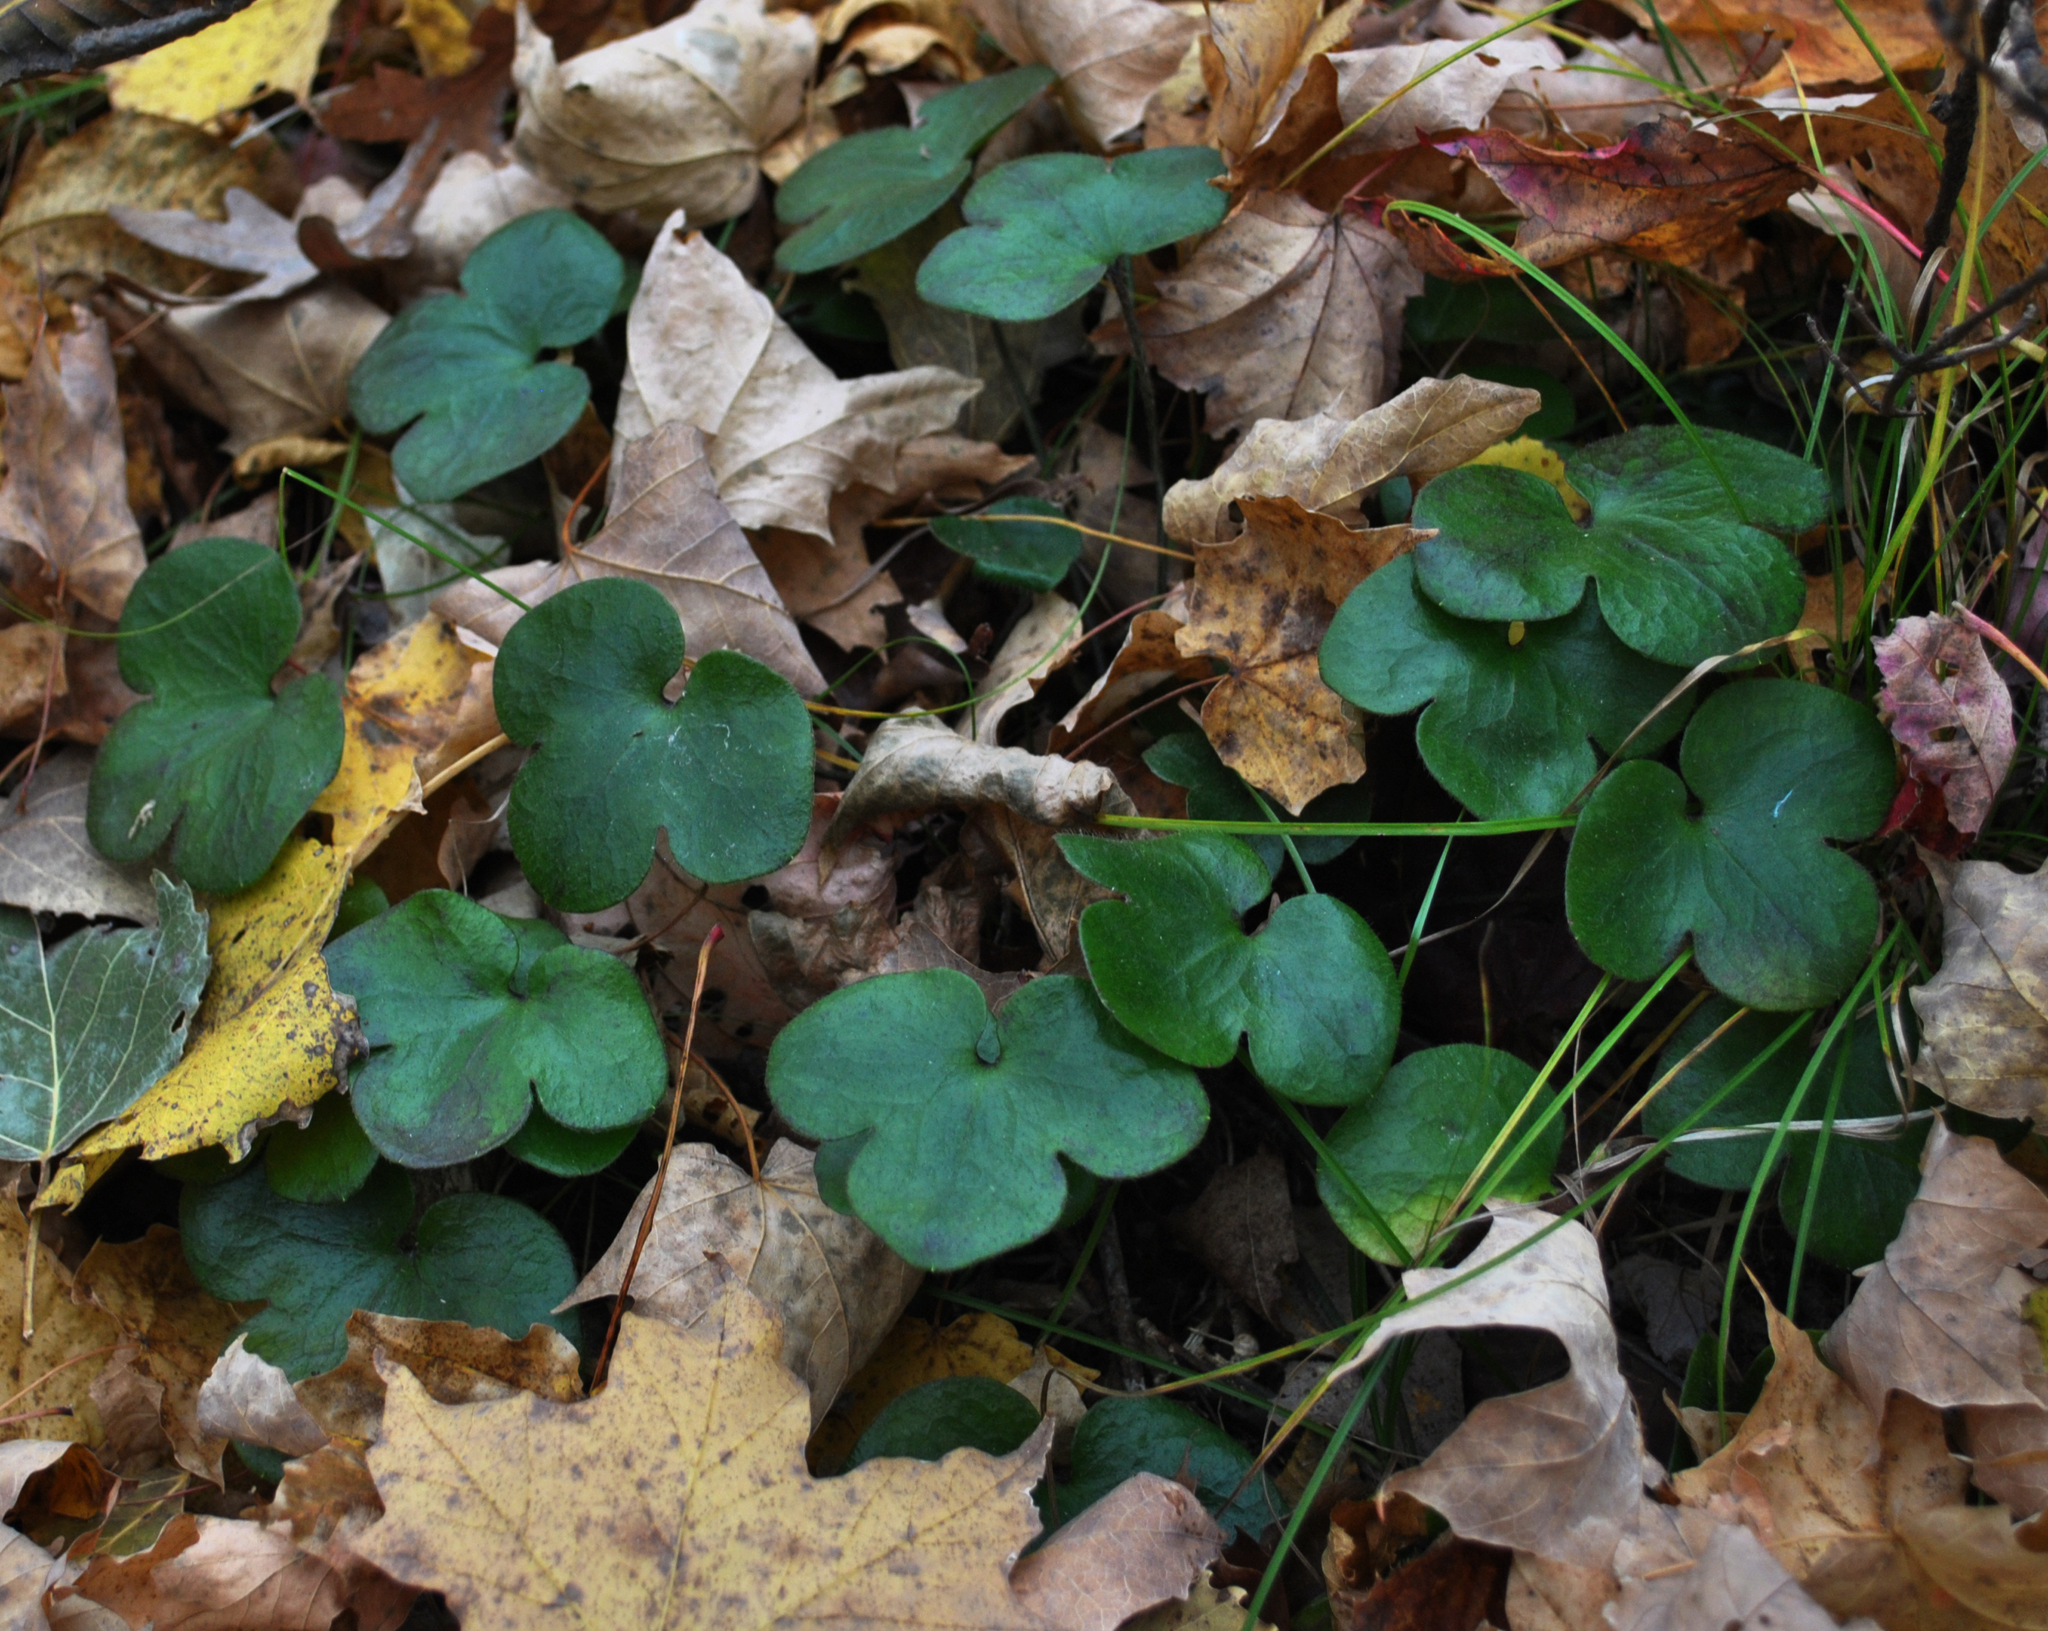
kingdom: Plantae
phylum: Tracheophyta
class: Magnoliopsida
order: Ranunculales
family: Ranunculaceae
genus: Hepatica
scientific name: Hepatica americana
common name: American hepatica
